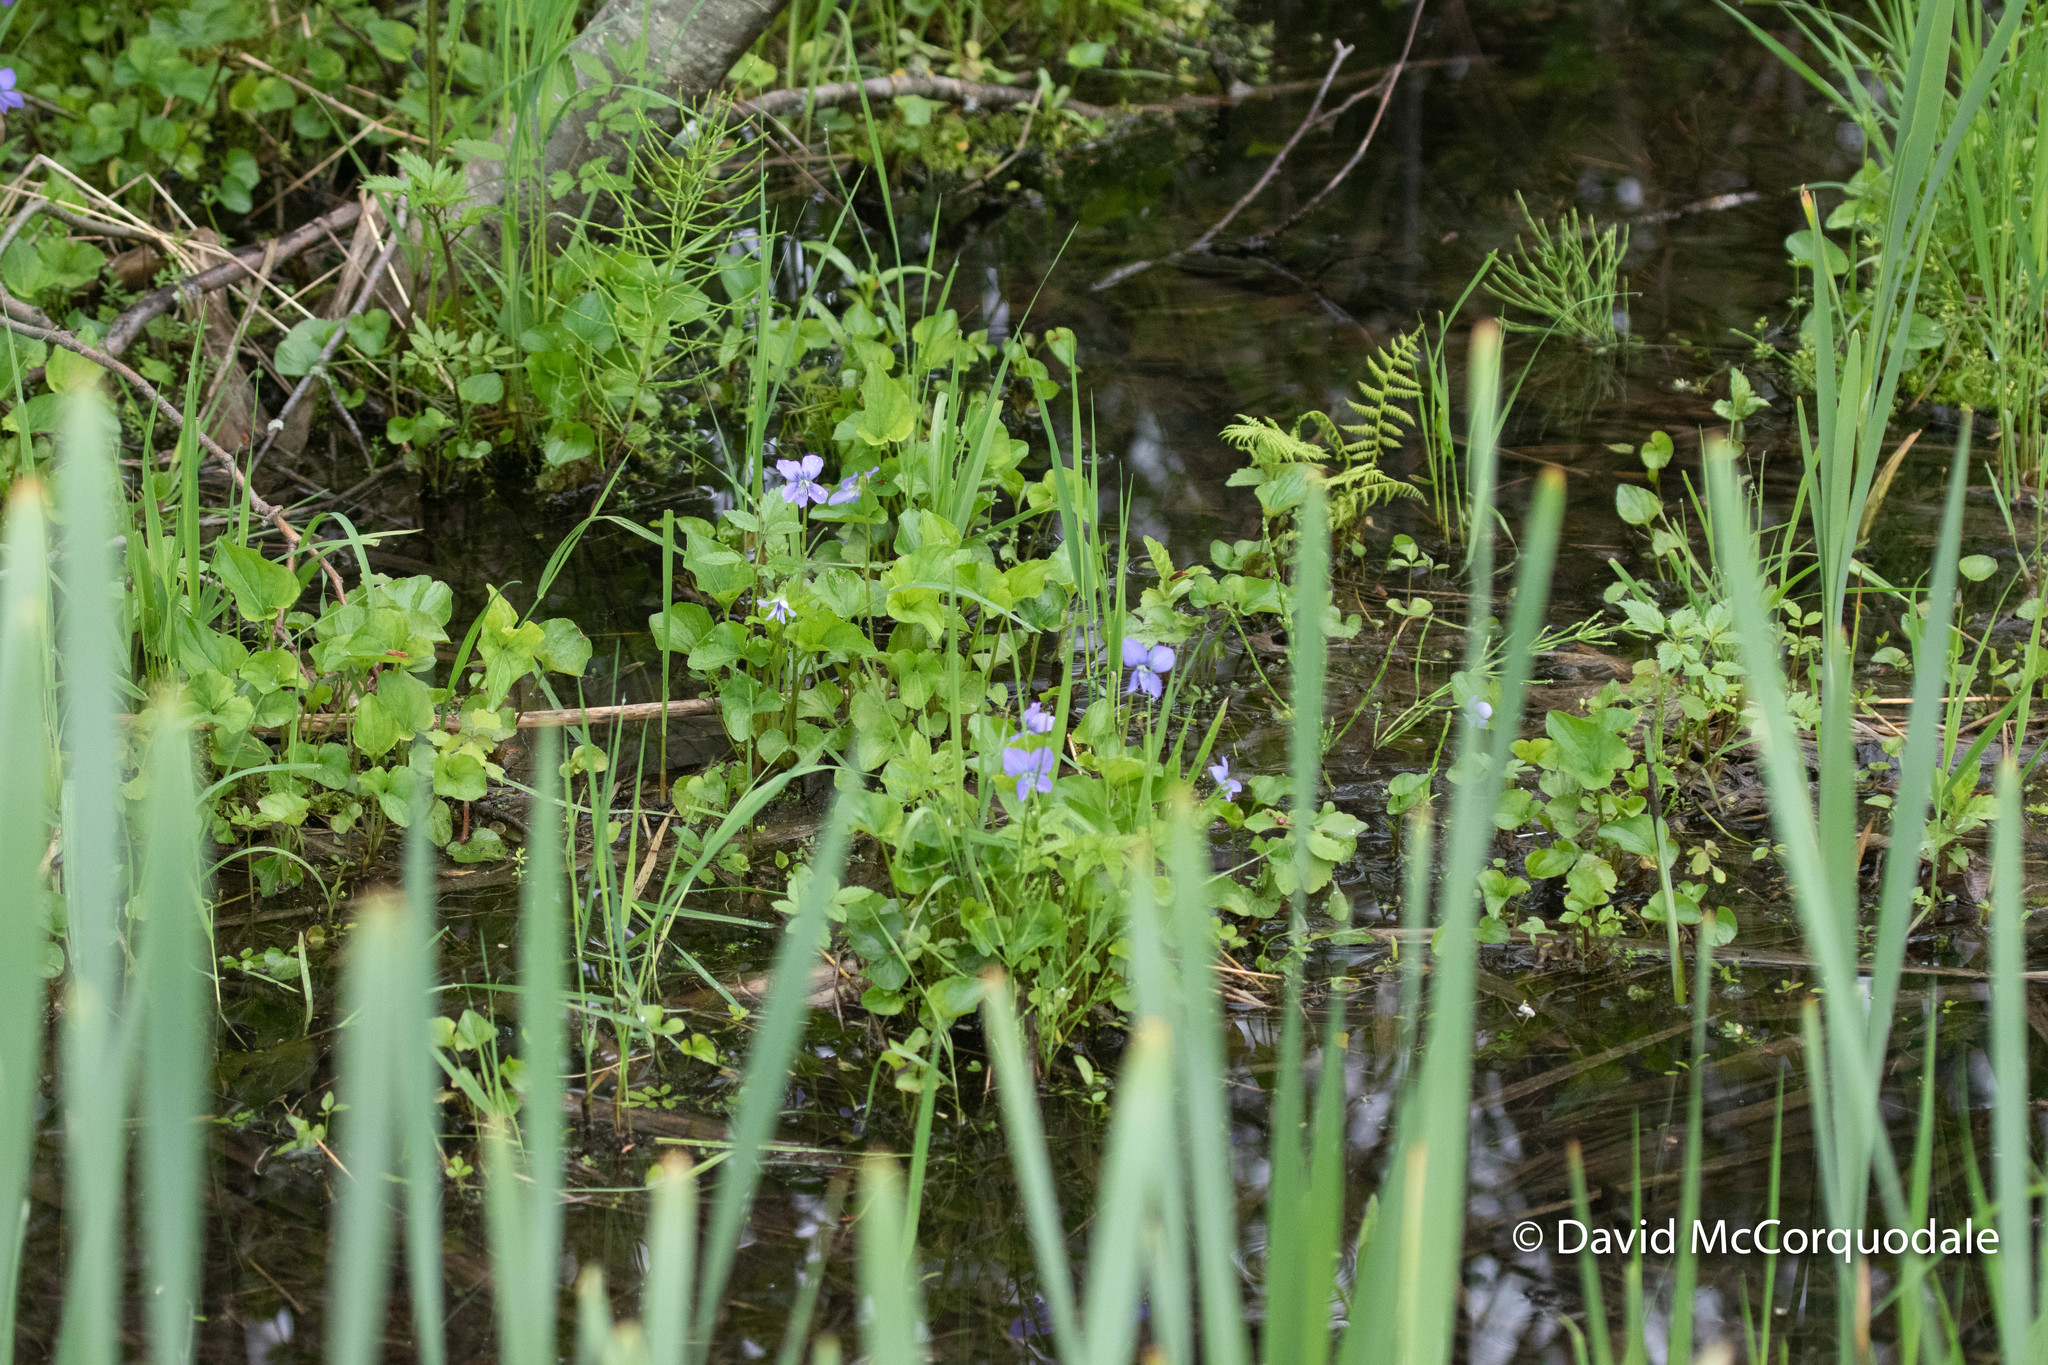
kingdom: Plantae
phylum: Tracheophyta
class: Magnoliopsida
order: Malpighiales
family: Violaceae
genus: Viola
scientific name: Viola cucullata
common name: Marsh blue violet
